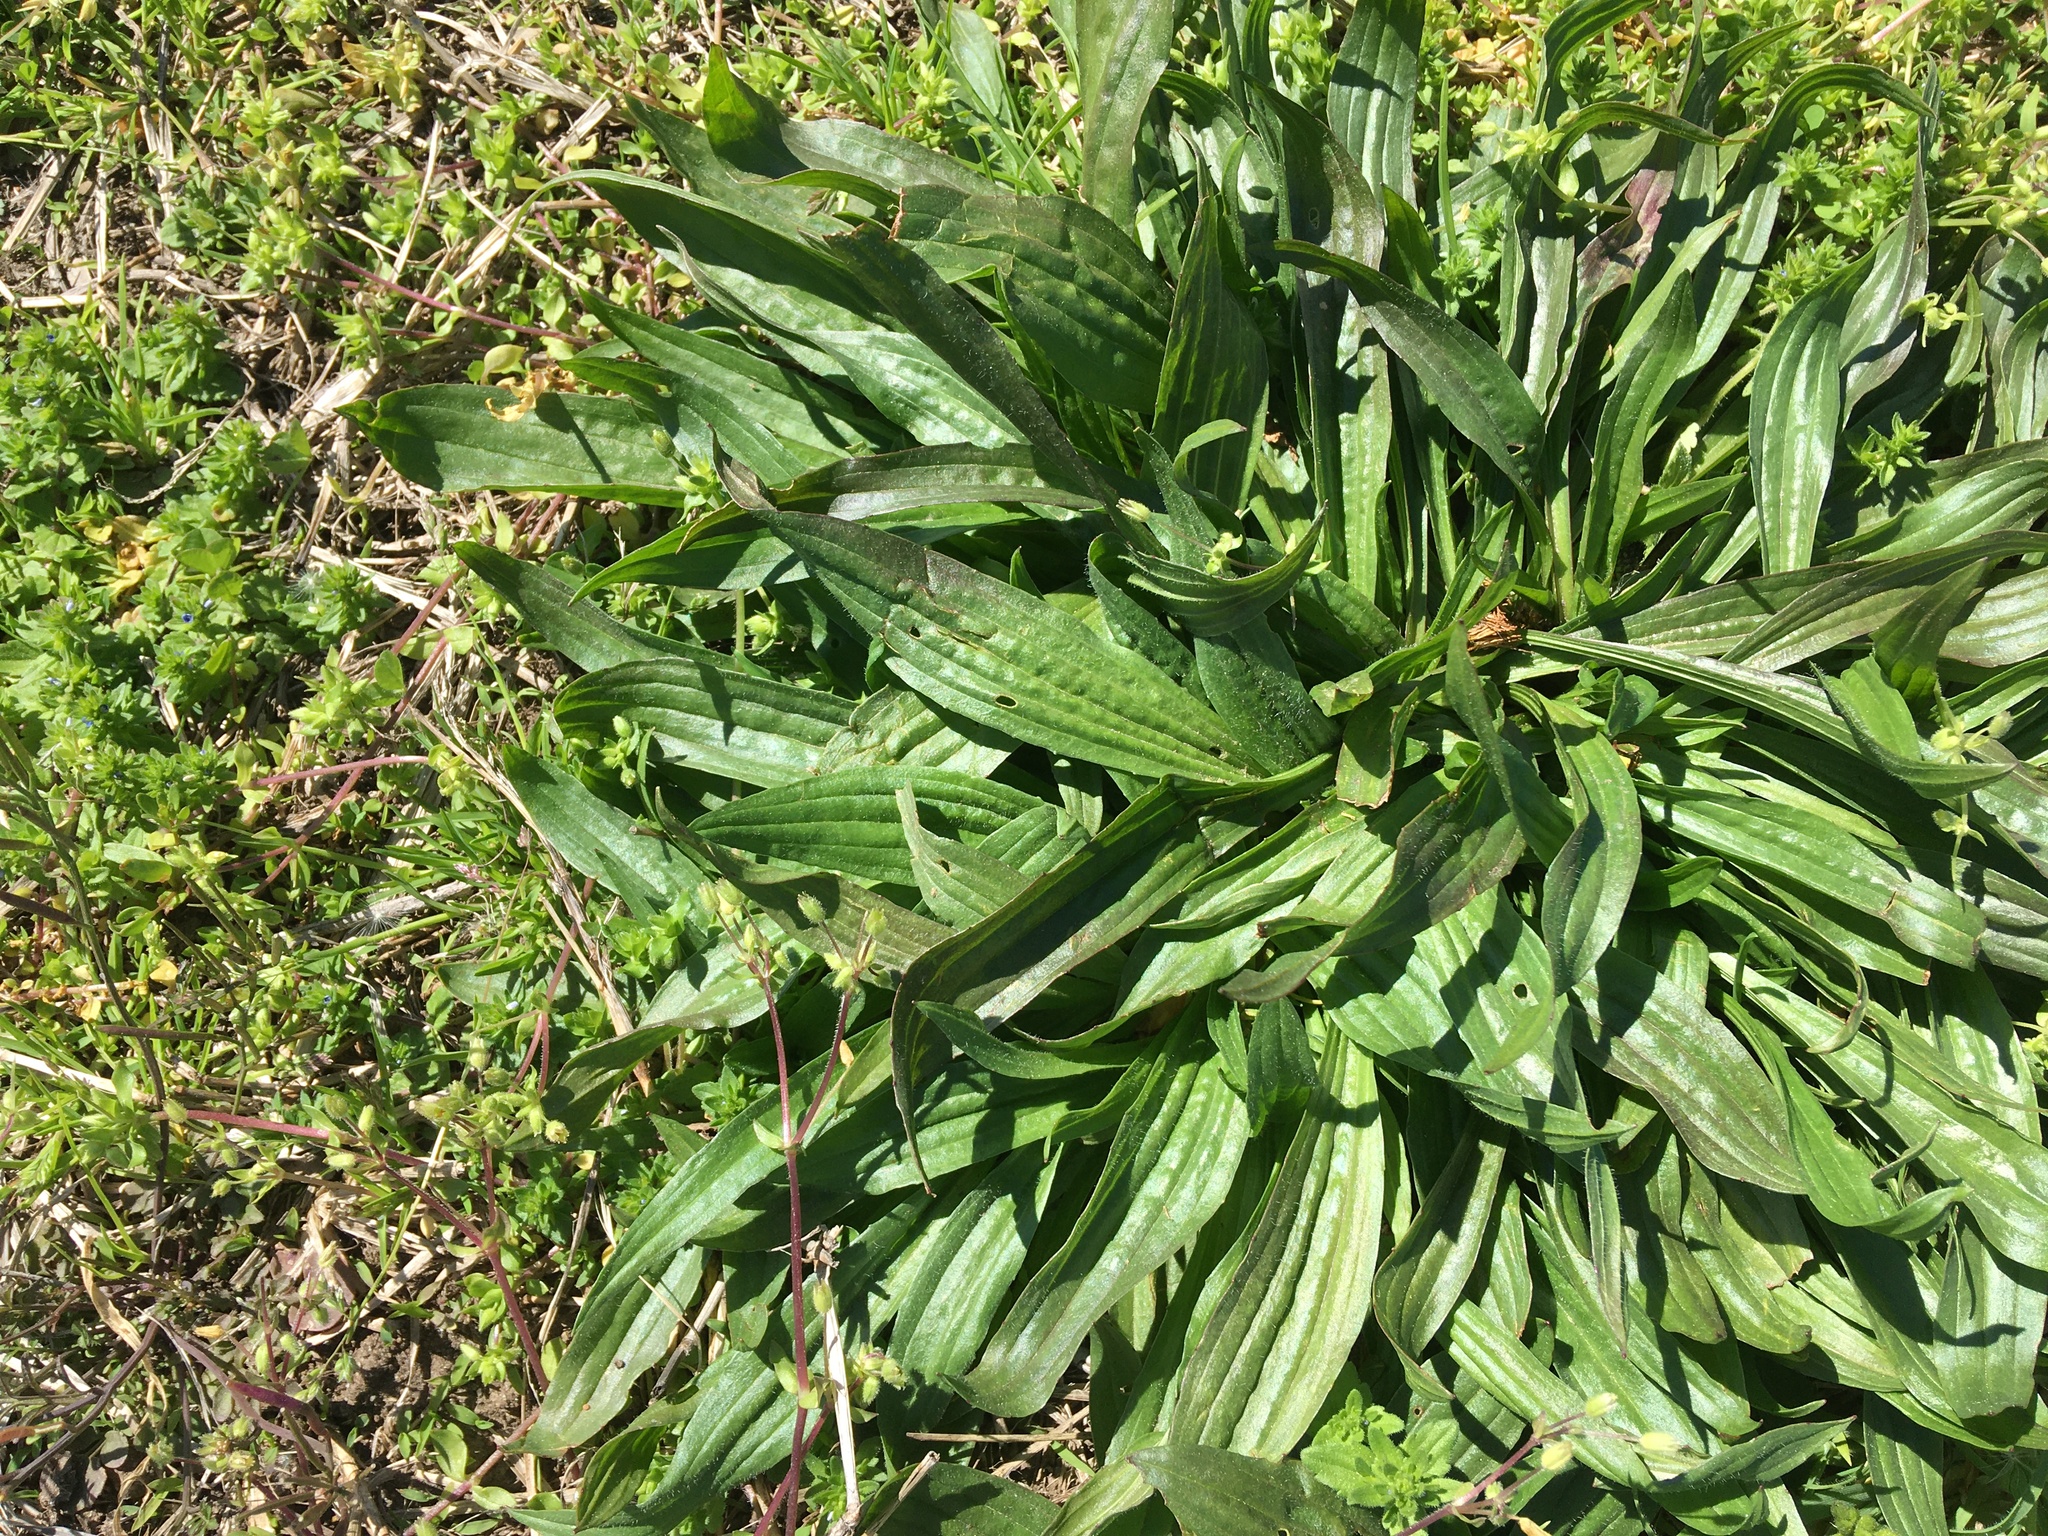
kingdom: Plantae
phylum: Tracheophyta
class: Magnoliopsida
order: Lamiales
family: Plantaginaceae
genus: Plantago
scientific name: Plantago lanceolata
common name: Ribwort plantain
